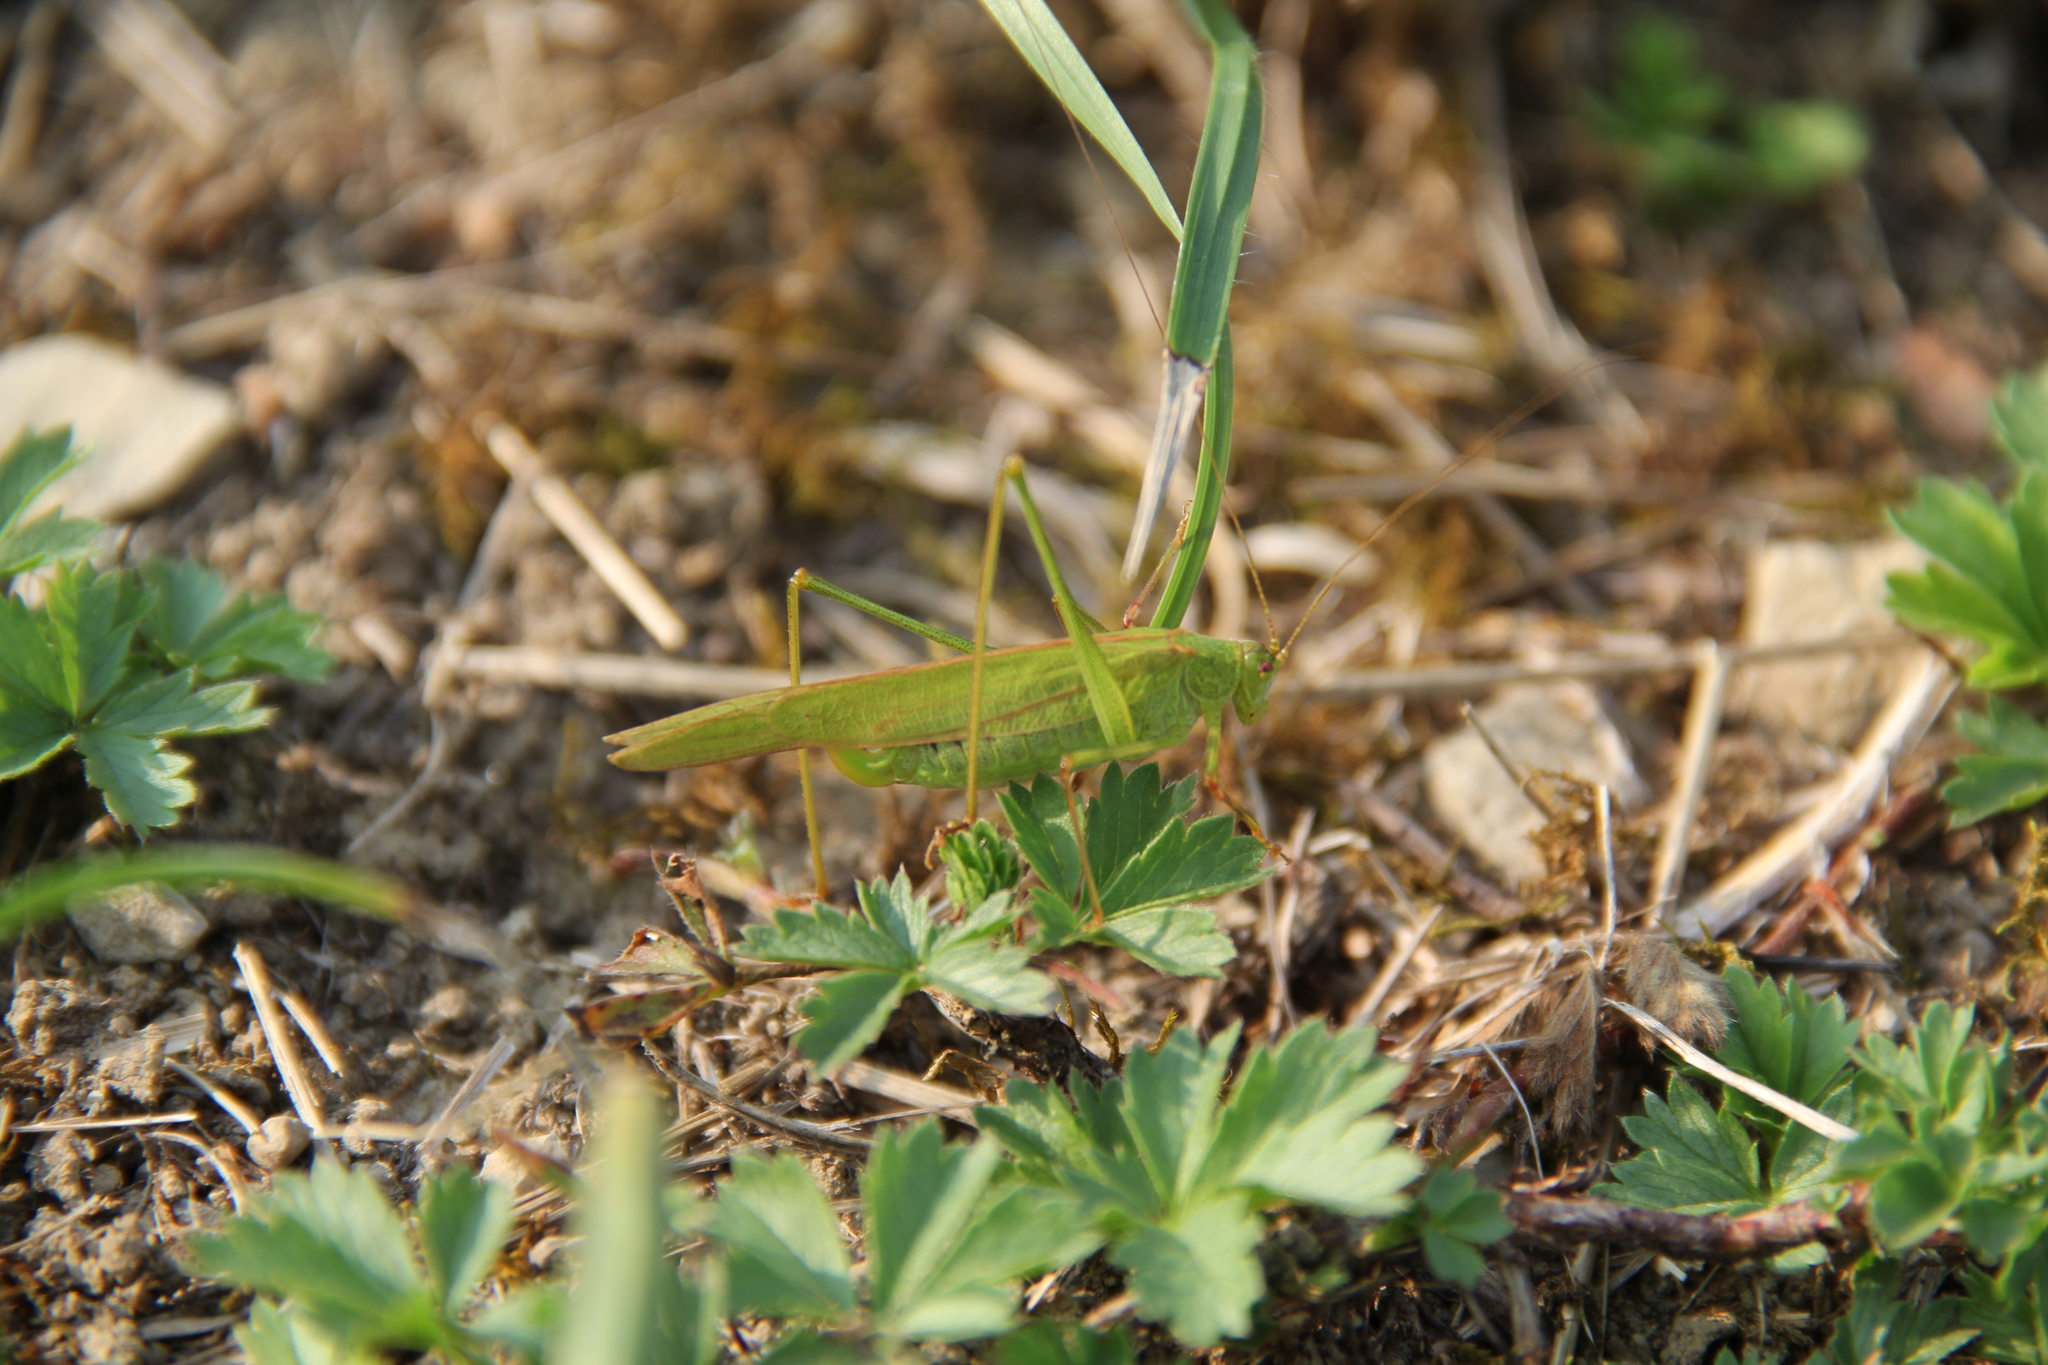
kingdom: Animalia
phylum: Arthropoda
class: Insecta
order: Orthoptera
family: Tettigoniidae
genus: Phaneroptera
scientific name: Phaneroptera falcata
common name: Sickle-bearing bush-cricket
